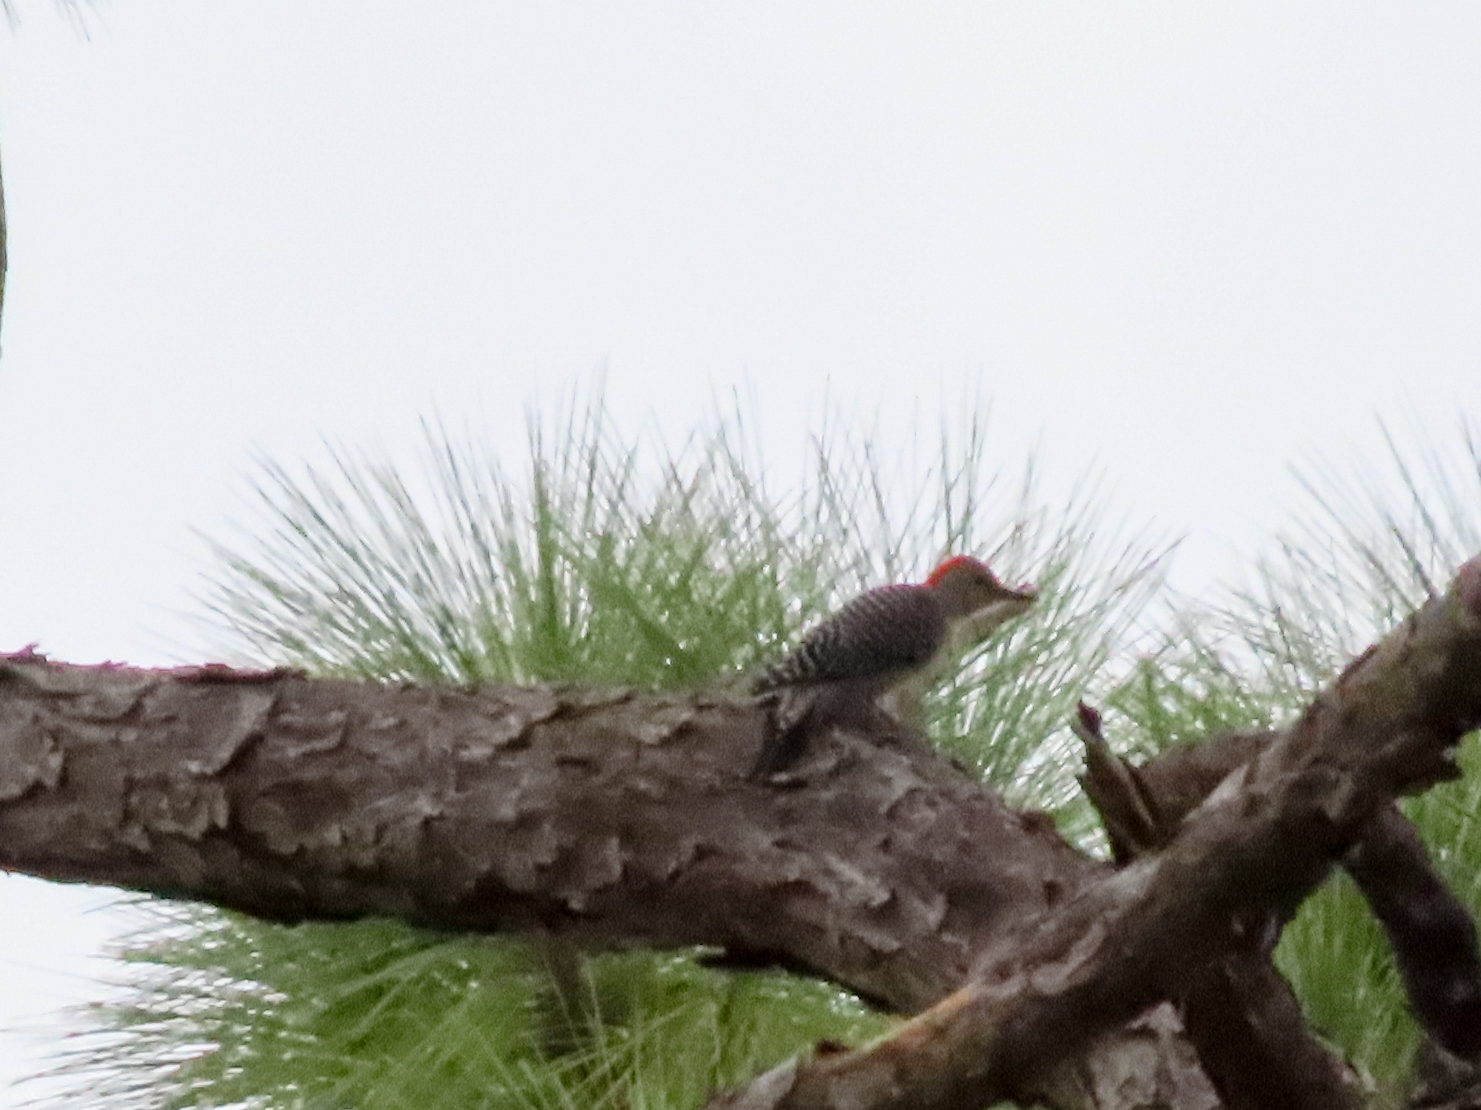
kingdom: Animalia
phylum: Chordata
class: Aves
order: Piciformes
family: Picidae
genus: Melanerpes
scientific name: Melanerpes carolinus
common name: Red-bellied woodpecker
